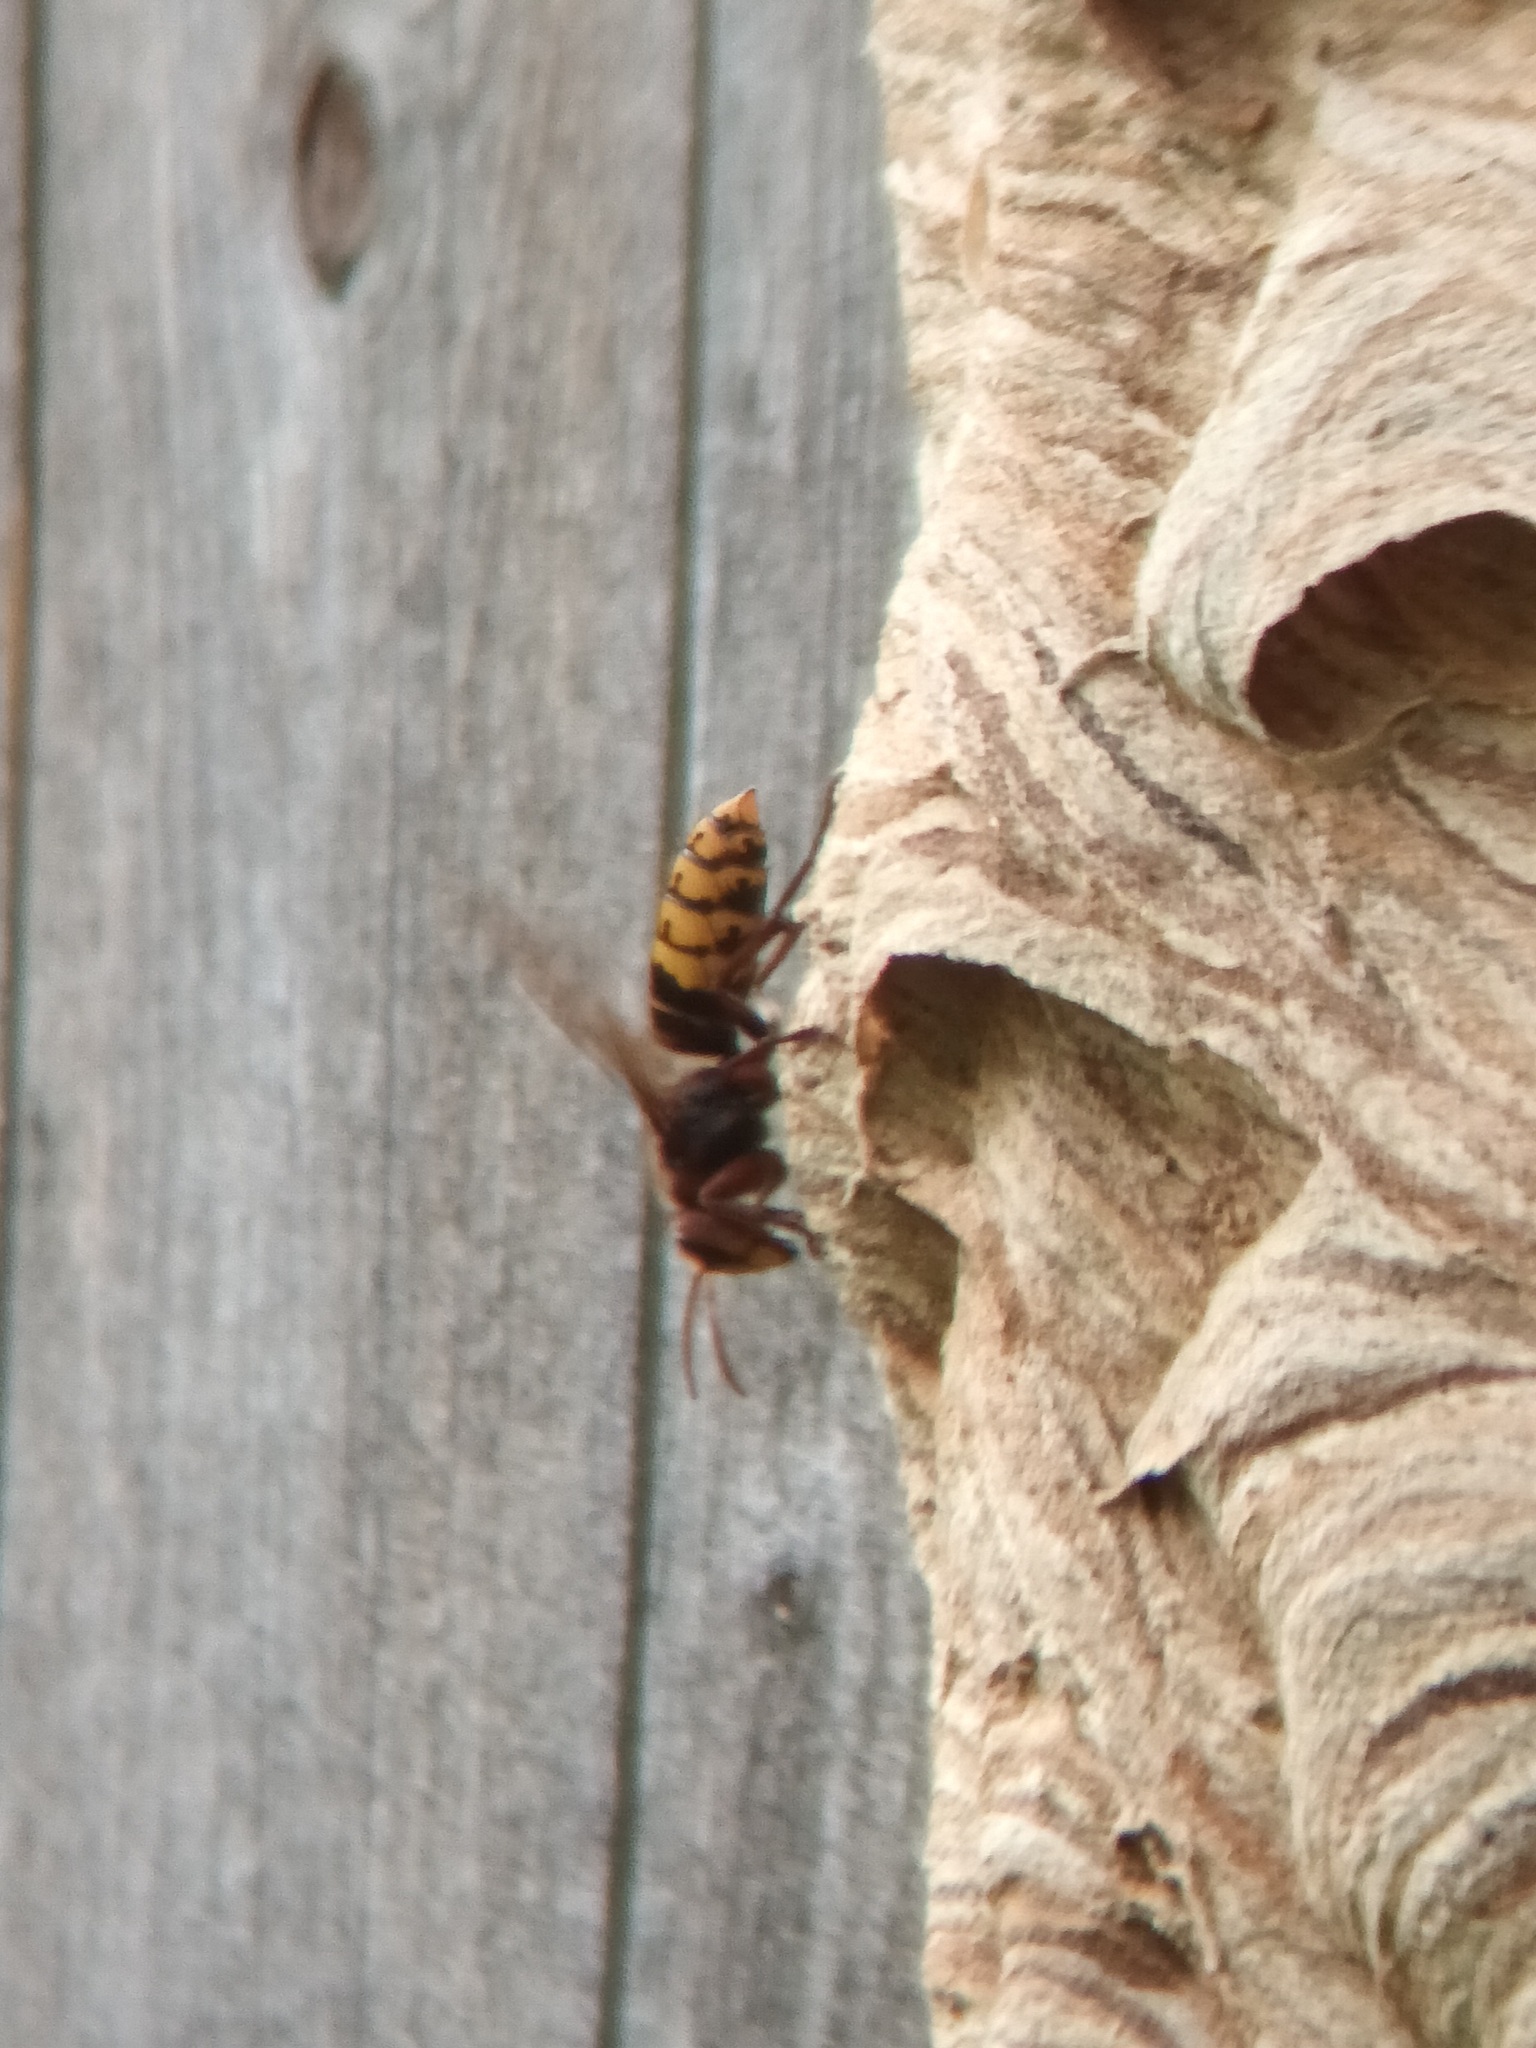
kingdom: Animalia
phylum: Arthropoda
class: Insecta
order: Hymenoptera
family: Vespidae
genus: Vespa
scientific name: Vespa crabro
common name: Hornet
